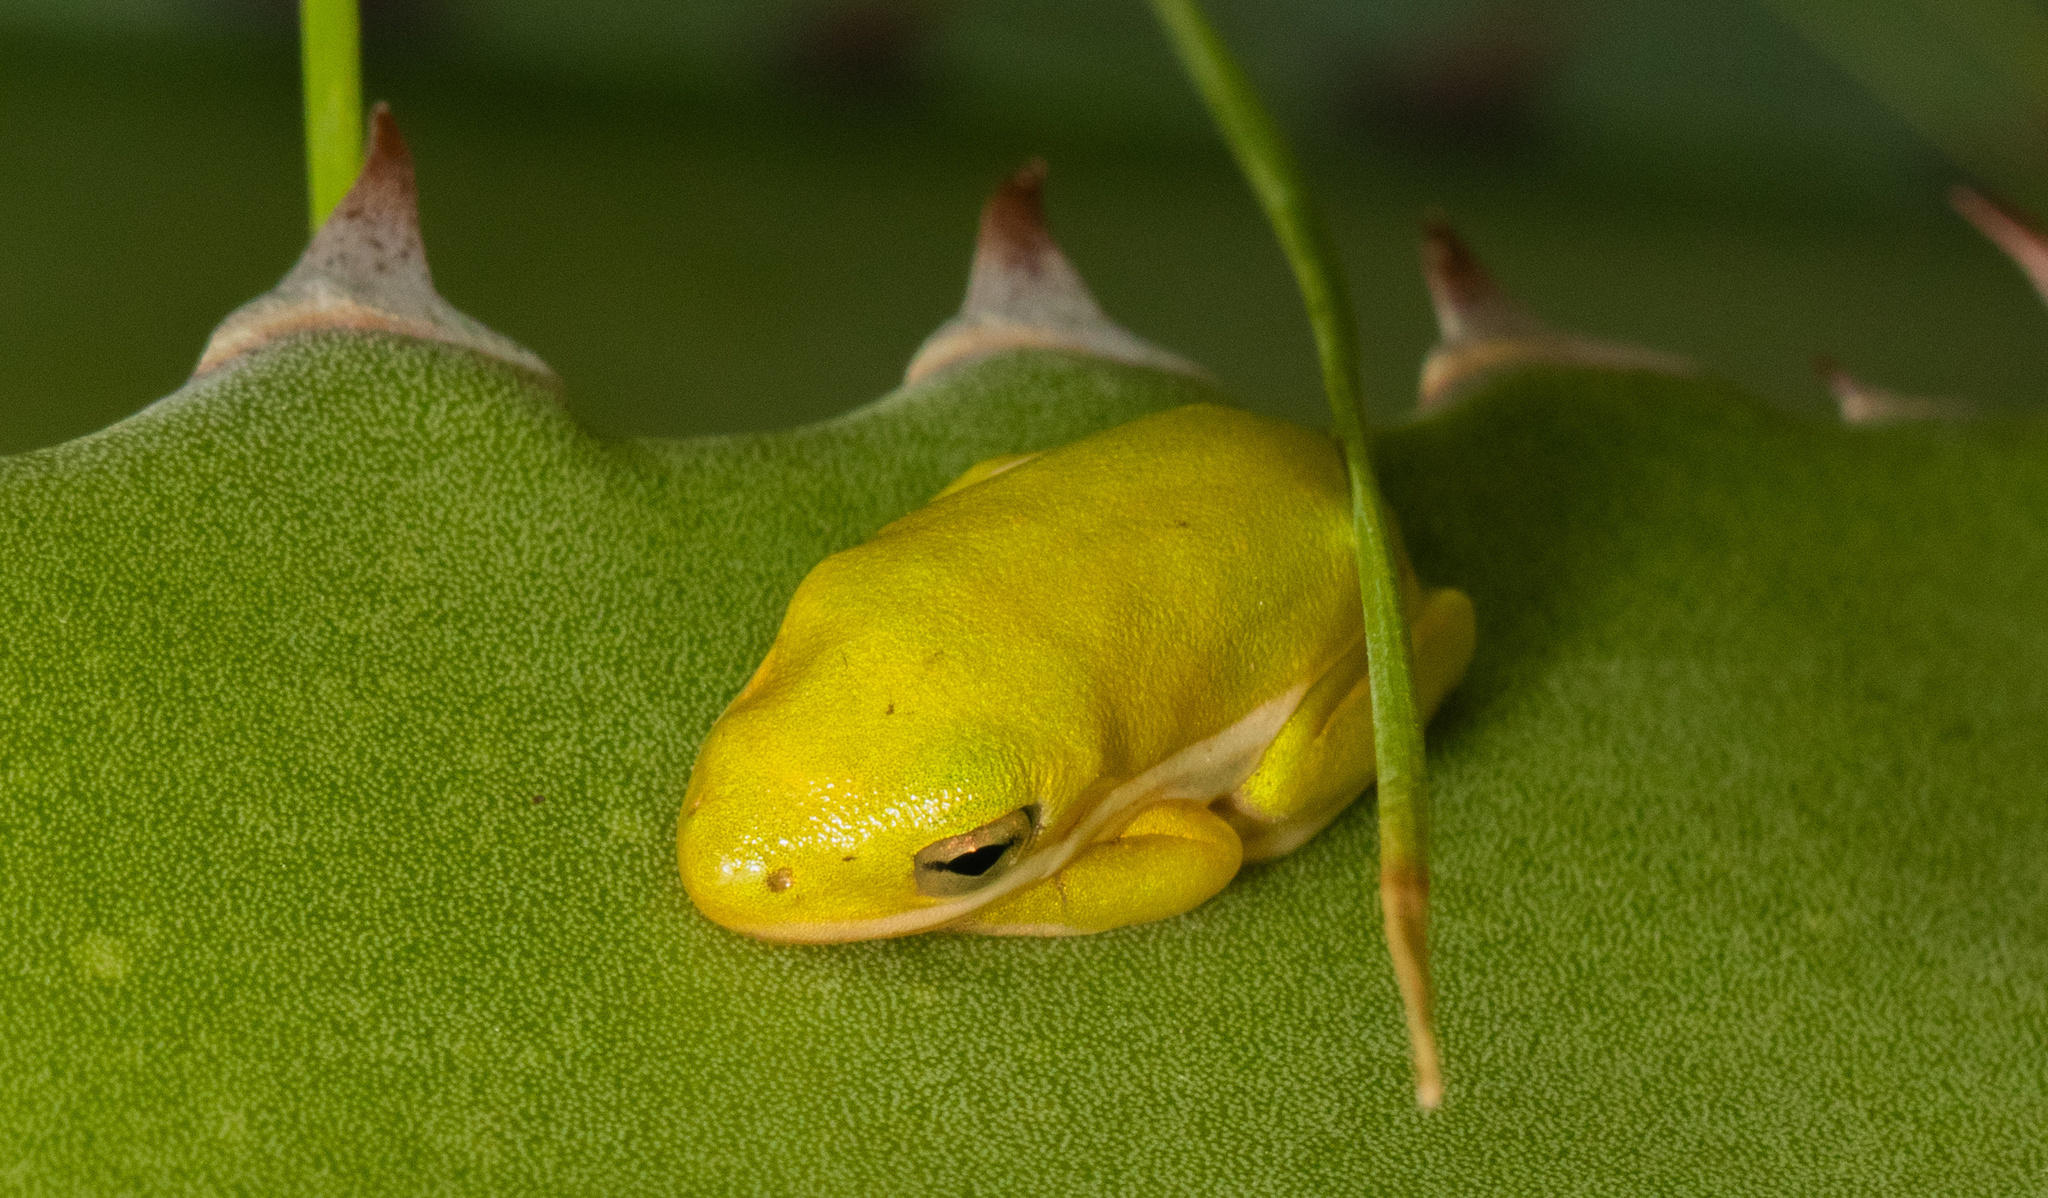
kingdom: Animalia
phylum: Chordata
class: Amphibia
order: Anura
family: Hylidae
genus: Dryophytes
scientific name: Dryophytes cinereus
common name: Green treefrog
